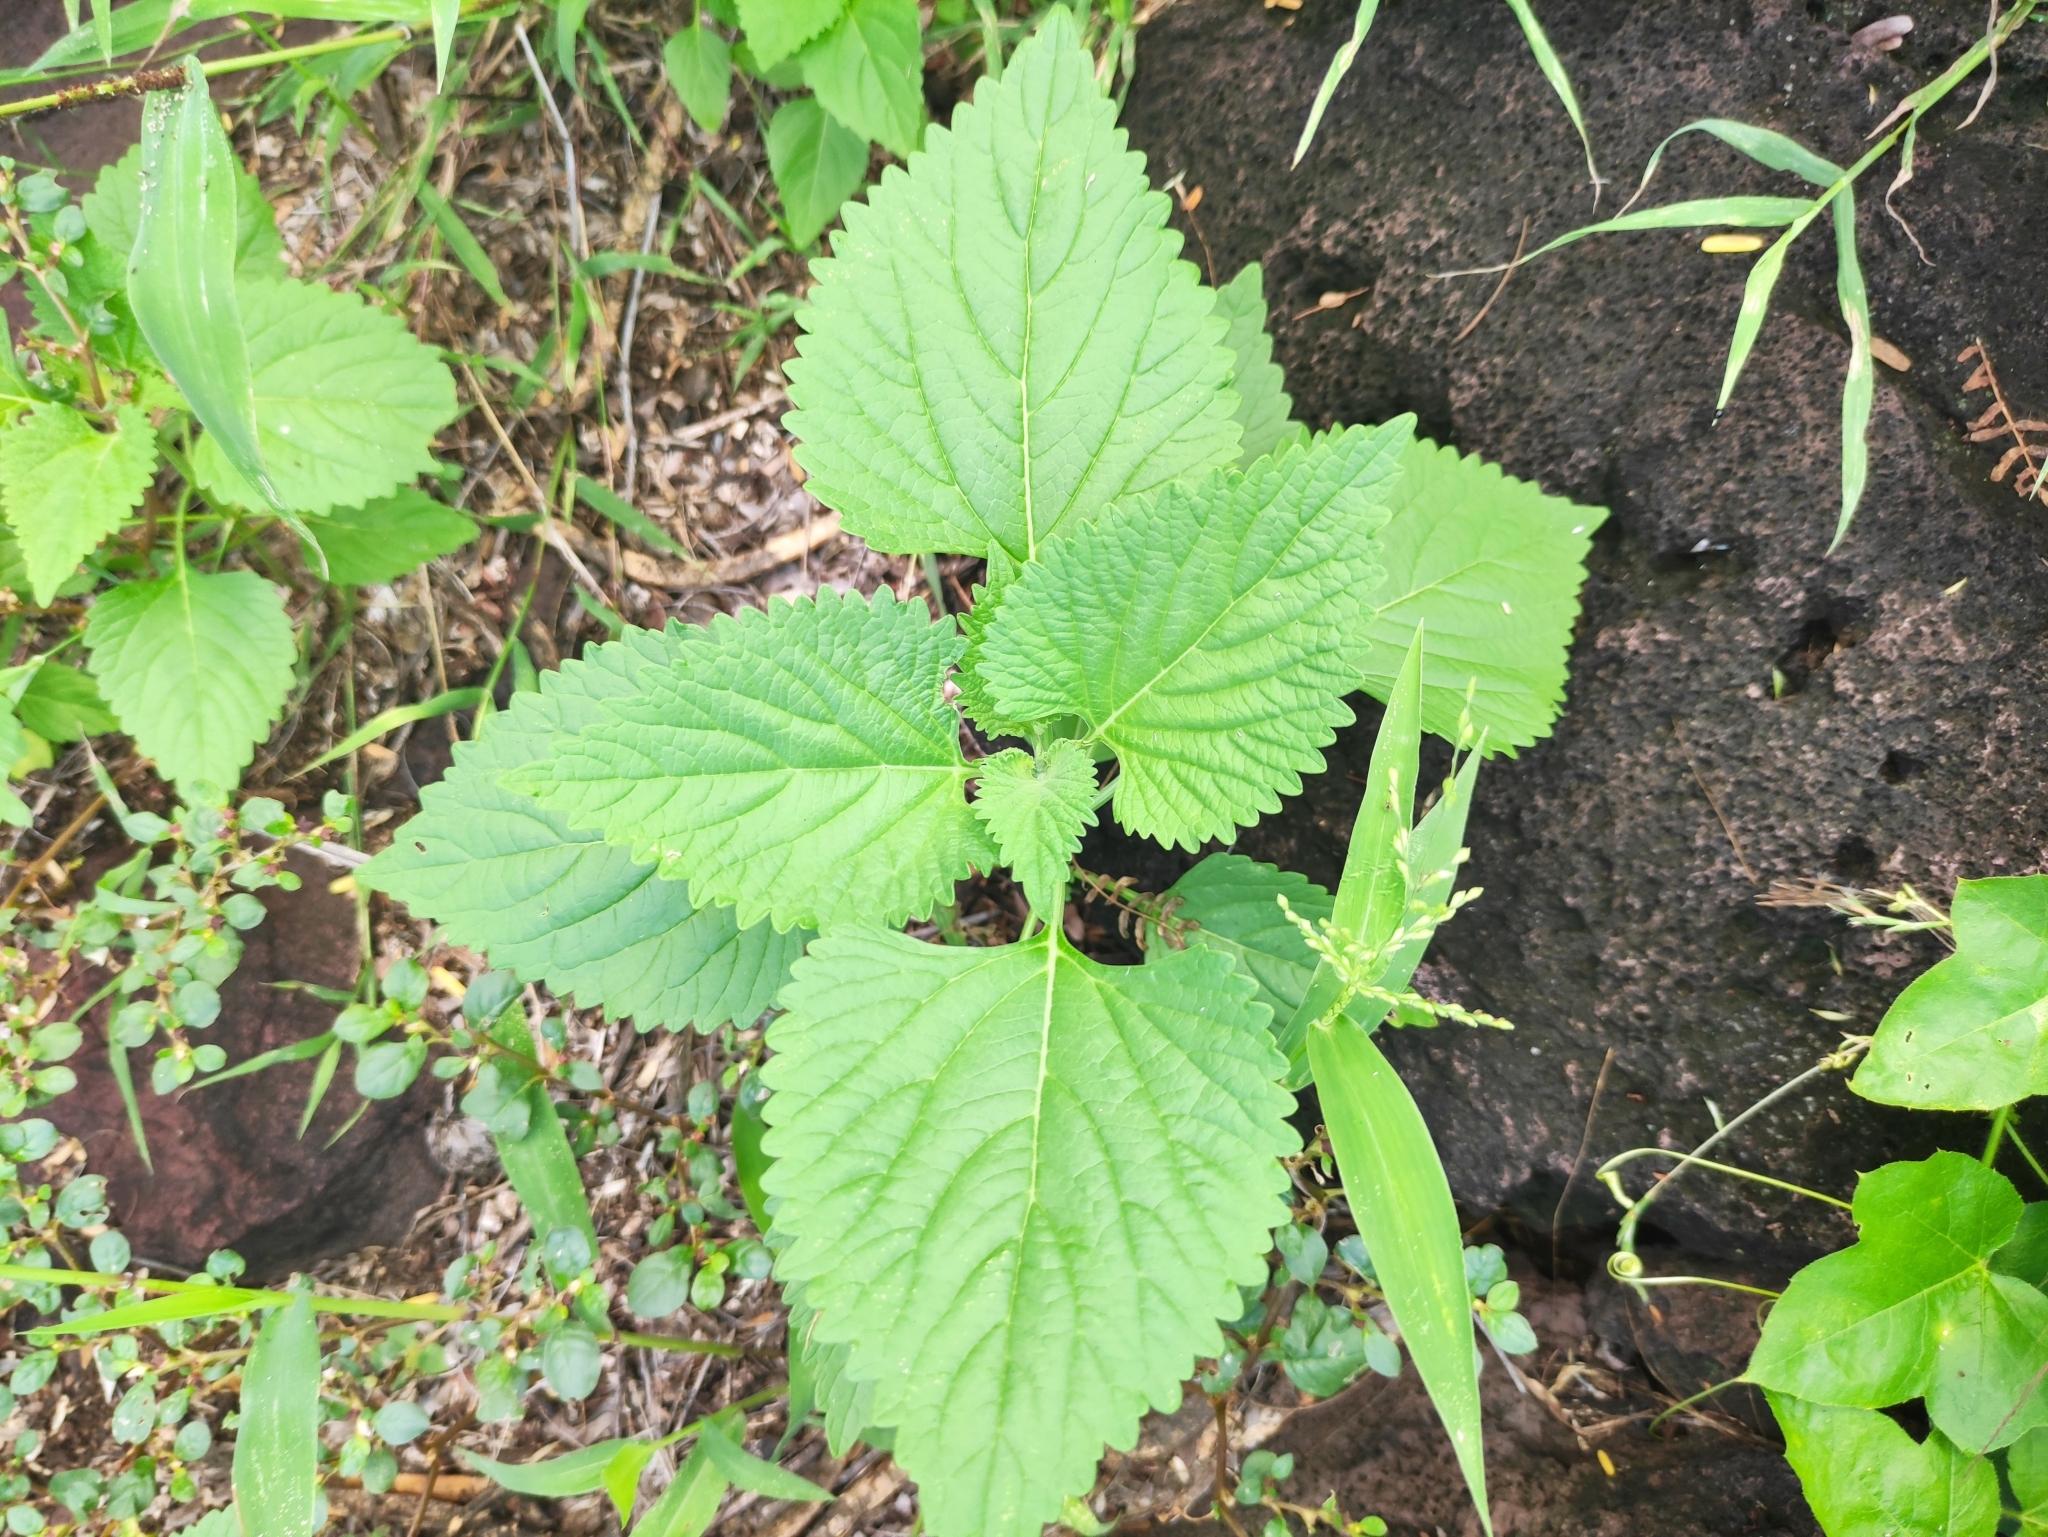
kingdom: Plantae
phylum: Tracheophyta
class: Magnoliopsida
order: Lamiales
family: Lamiaceae
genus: Leonotis
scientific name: Leonotis nepetifolia
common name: Christmas candlestick
